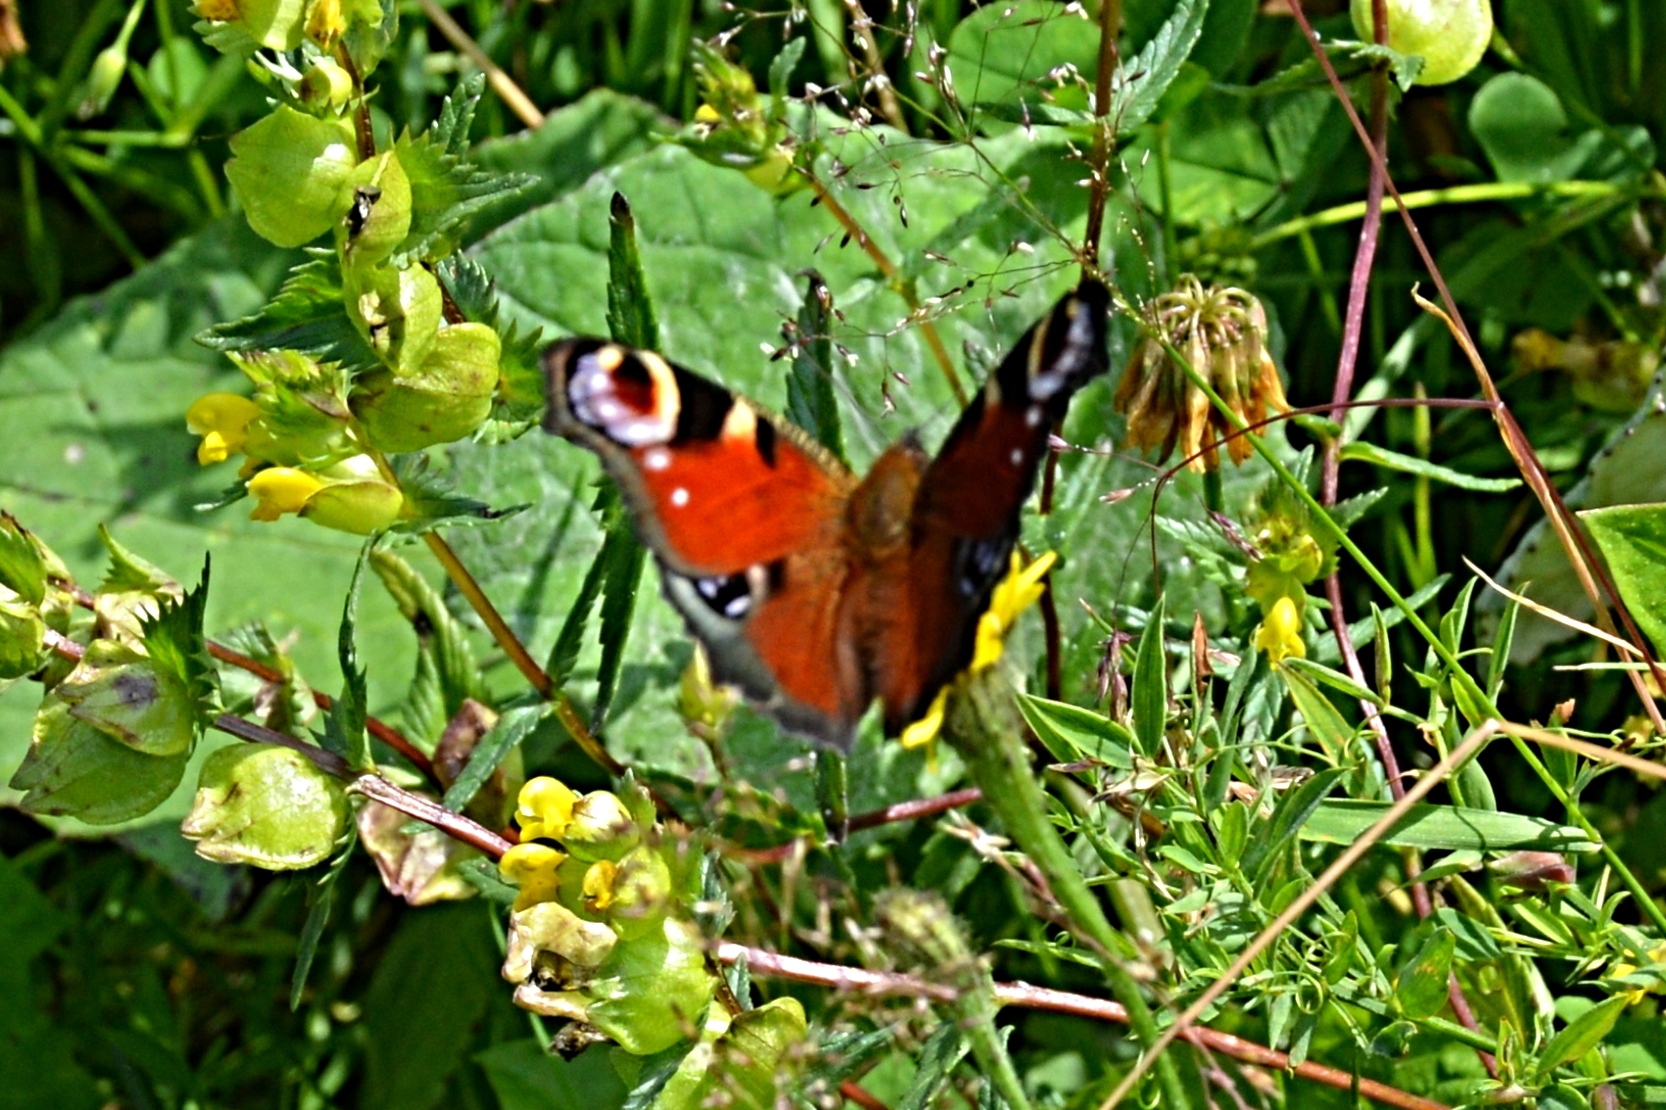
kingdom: Animalia
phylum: Arthropoda
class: Insecta
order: Lepidoptera
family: Nymphalidae
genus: Aglais
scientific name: Aglais io
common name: Peacock
